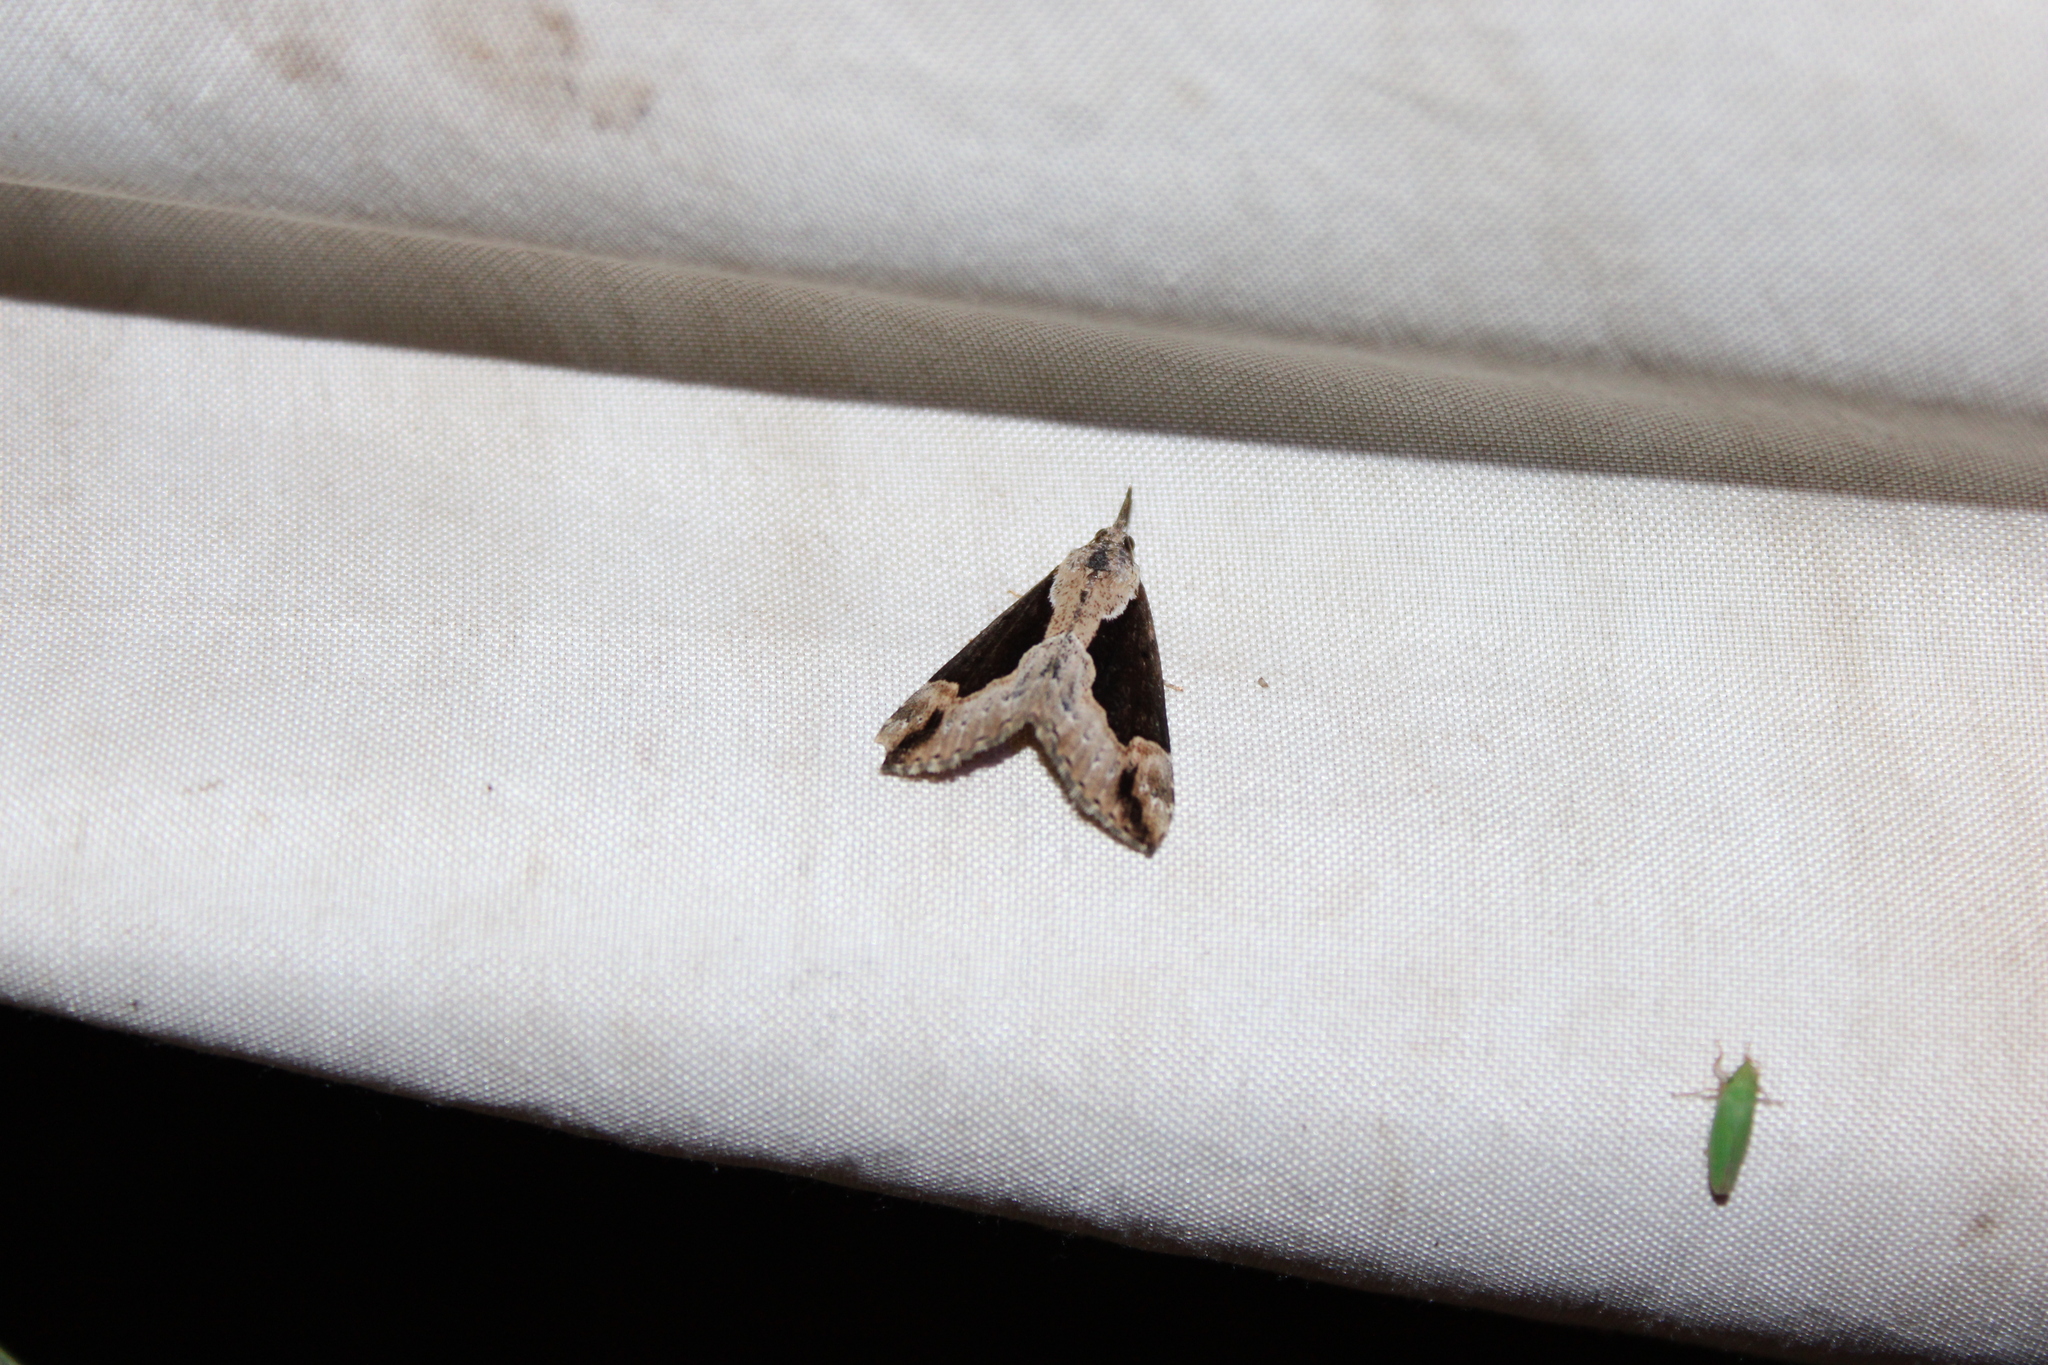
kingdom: Animalia
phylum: Arthropoda
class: Insecta
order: Lepidoptera
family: Erebidae
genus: Hypena
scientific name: Hypena baltimoralis
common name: Baltimore snout
